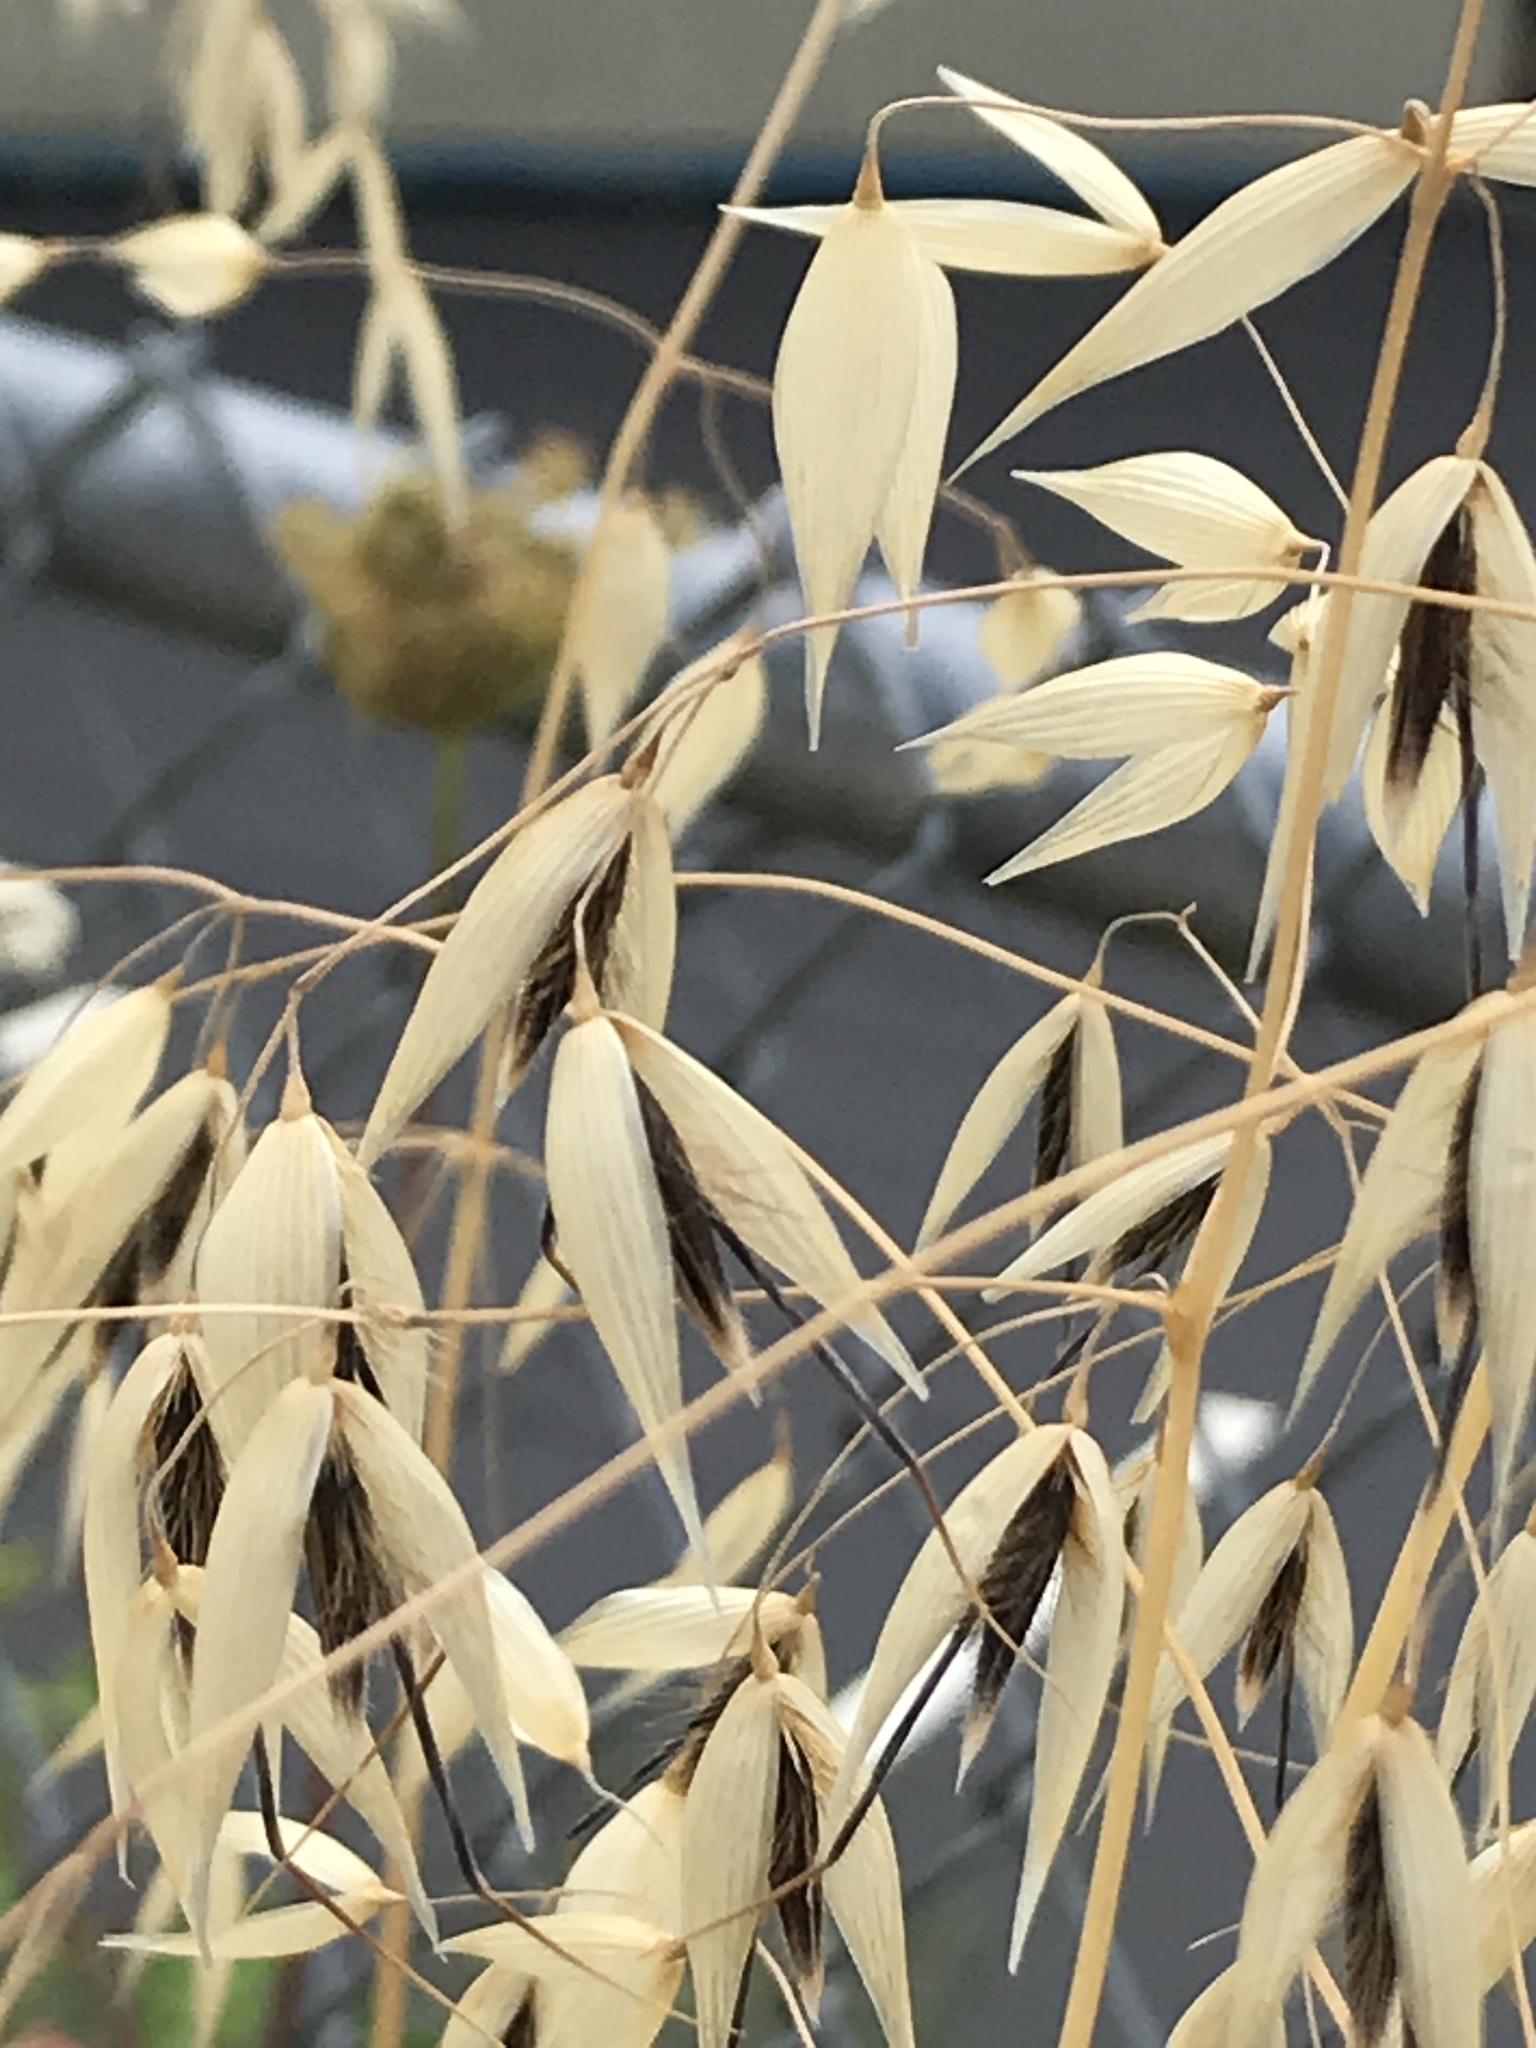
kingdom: Plantae
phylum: Tracheophyta
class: Liliopsida
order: Poales
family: Poaceae
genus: Avena
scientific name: Avena fatua
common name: Wild oat
